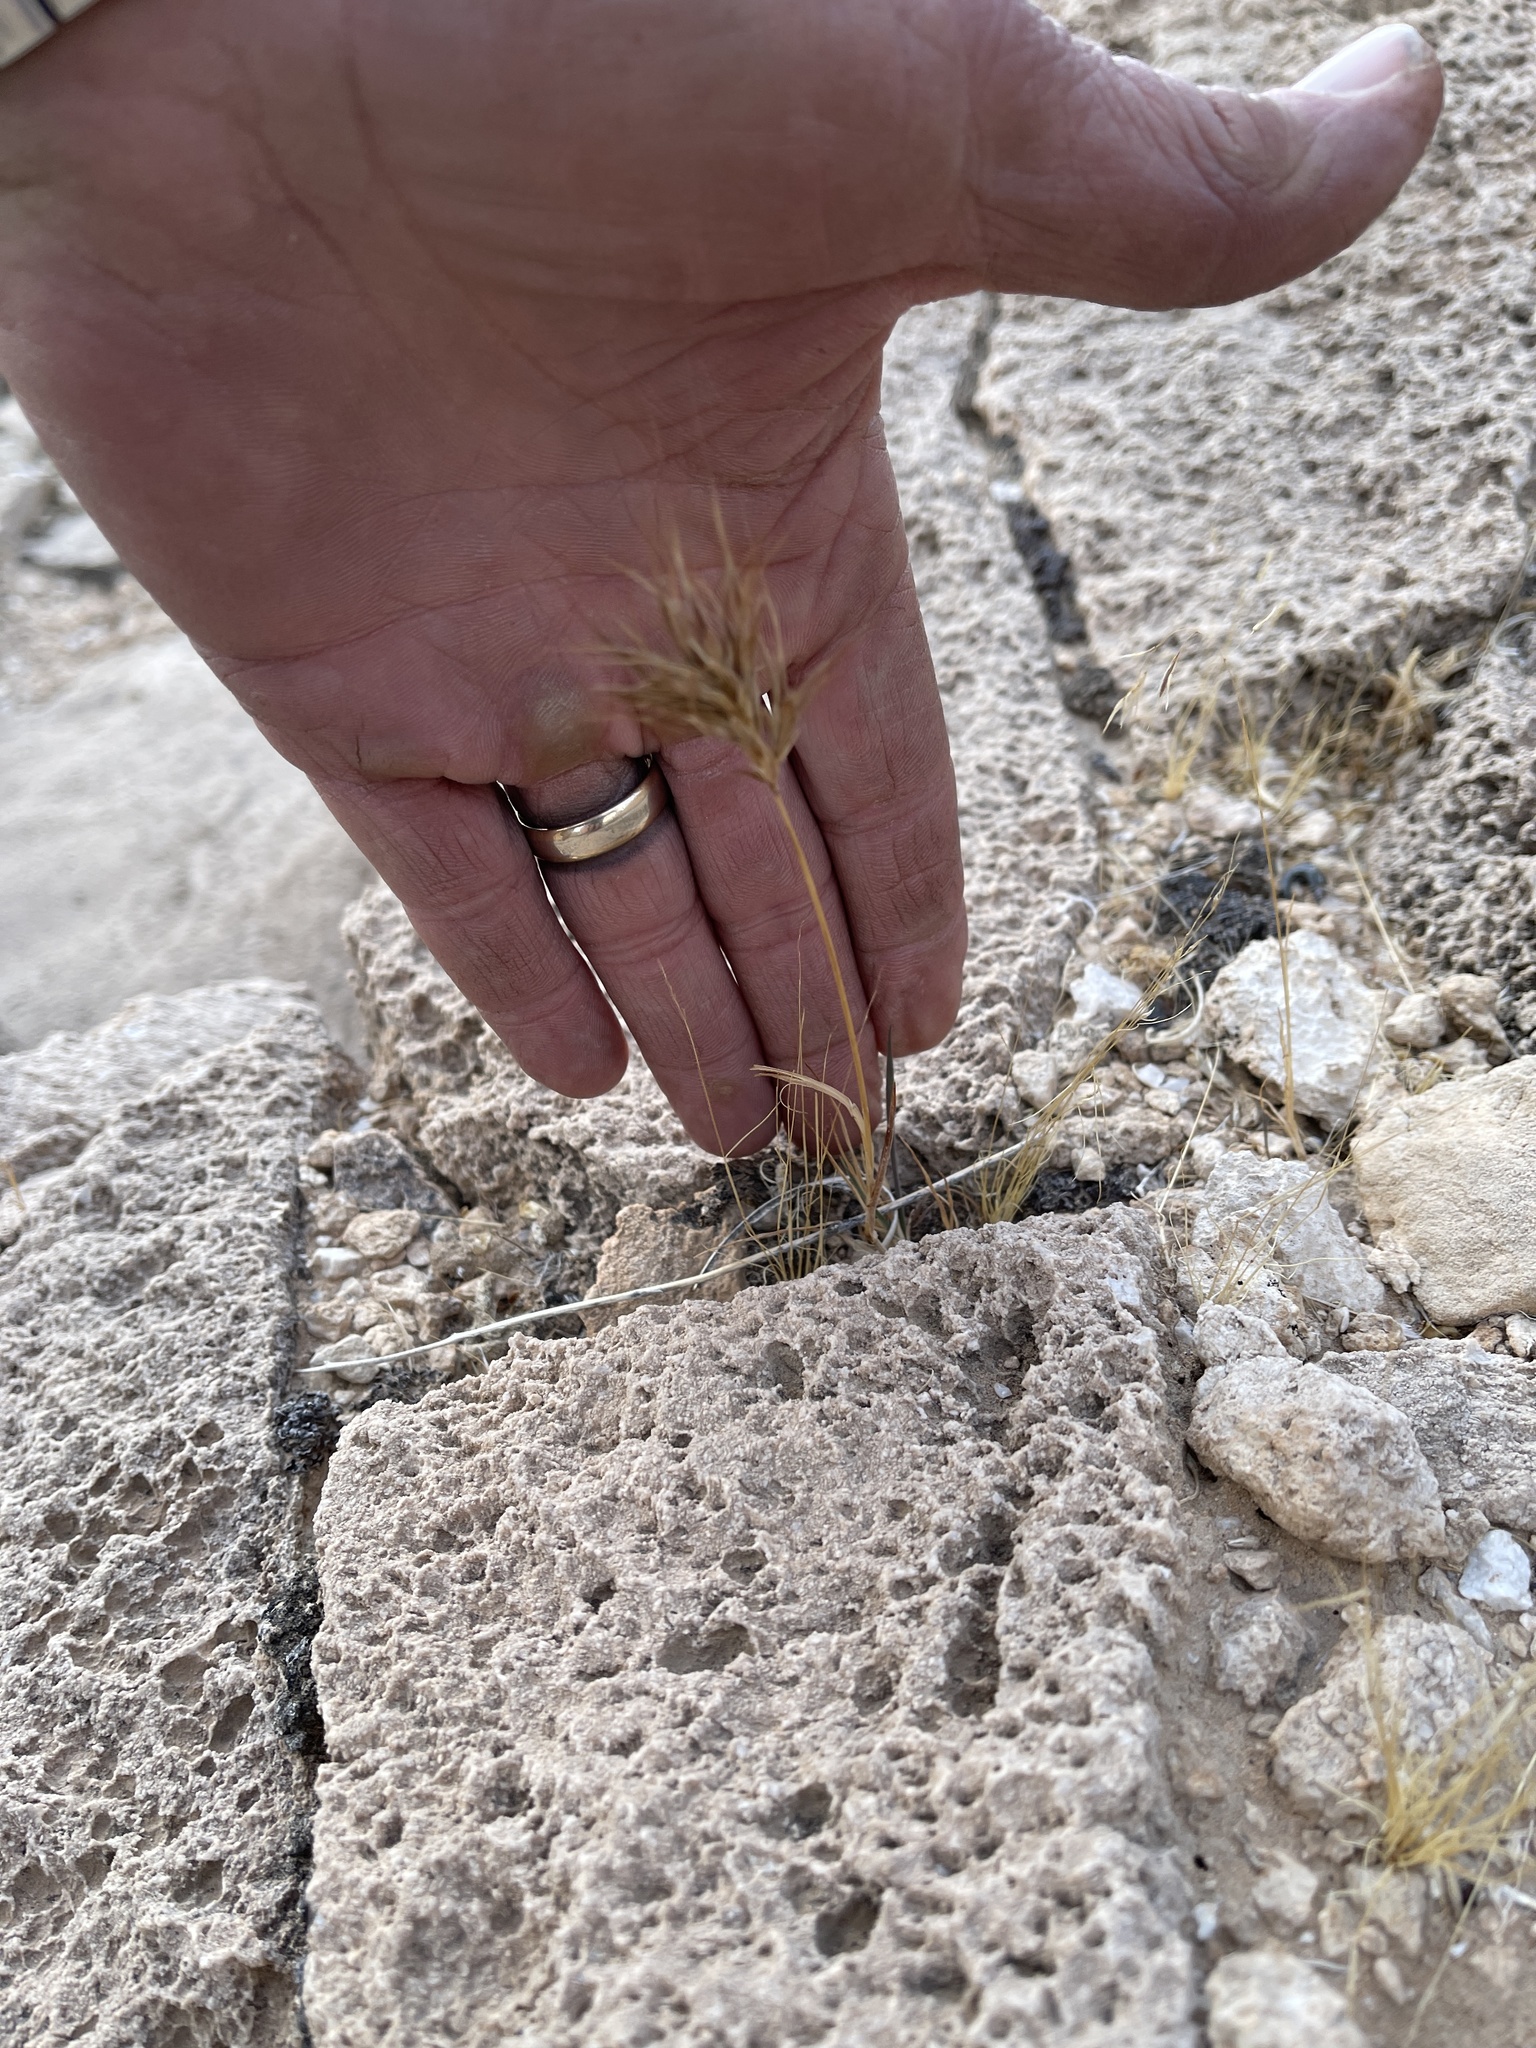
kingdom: Plantae
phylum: Tracheophyta
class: Liliopsida
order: Poales
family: Poaceae
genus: Bromus
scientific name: Bromus rubens
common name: Red brome
